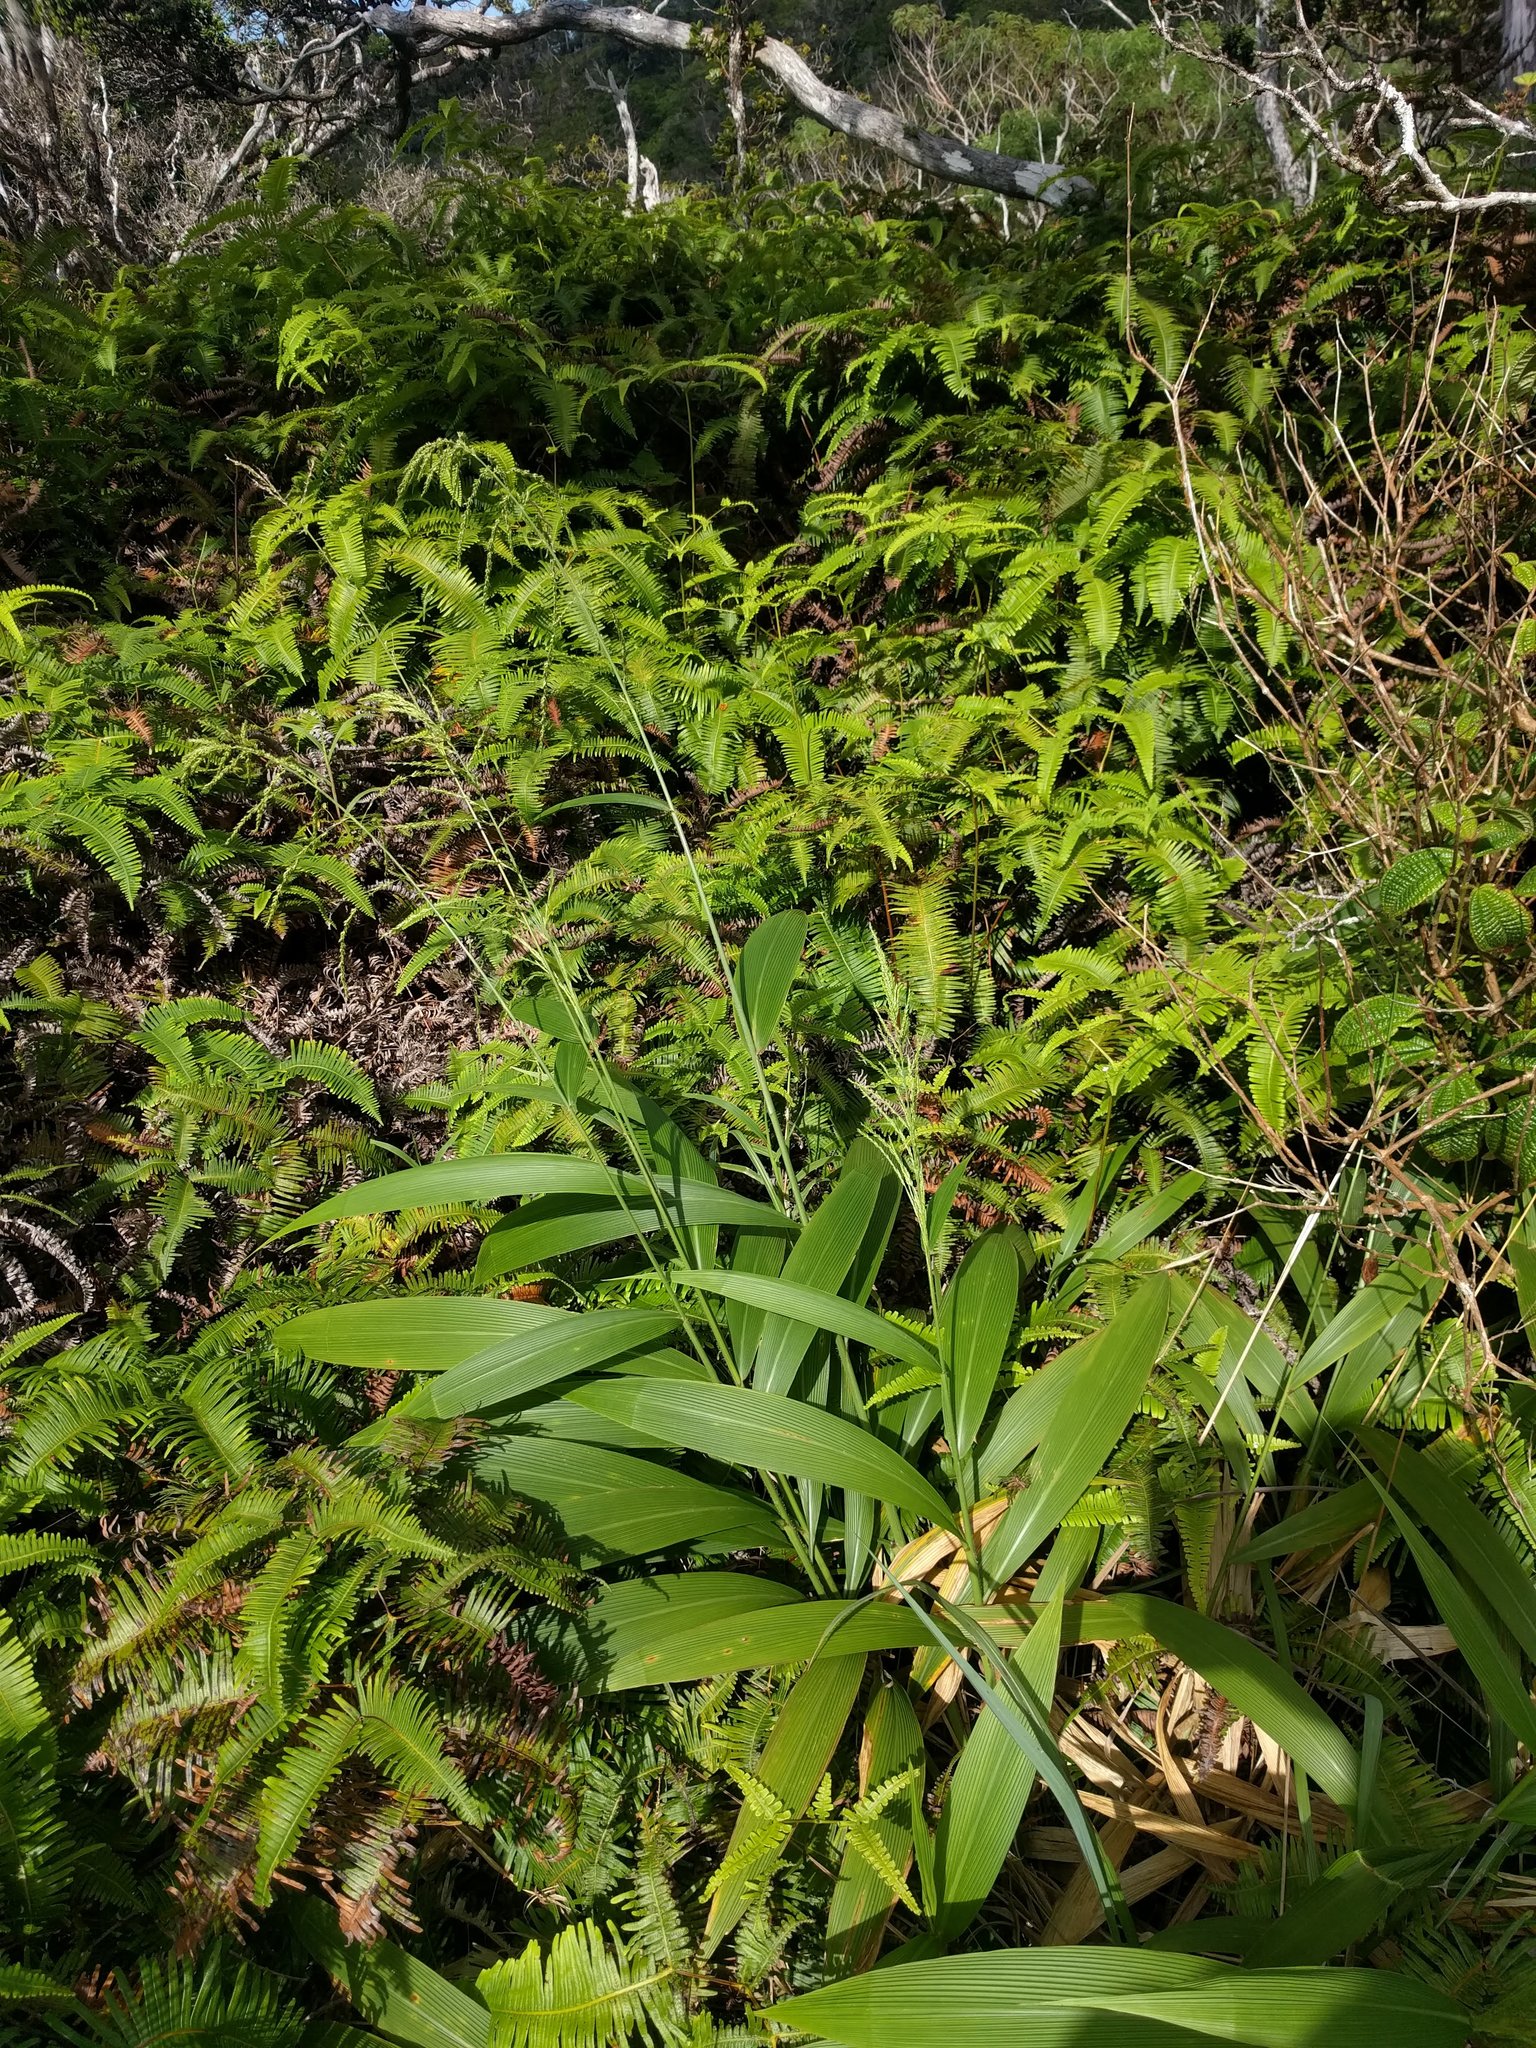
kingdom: Plantae
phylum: Tracheophyta
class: Liliopsida
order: Poales
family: Poaceae
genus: Setaria
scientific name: Setaria palmifolia
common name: Broadleaved bristlegrass
